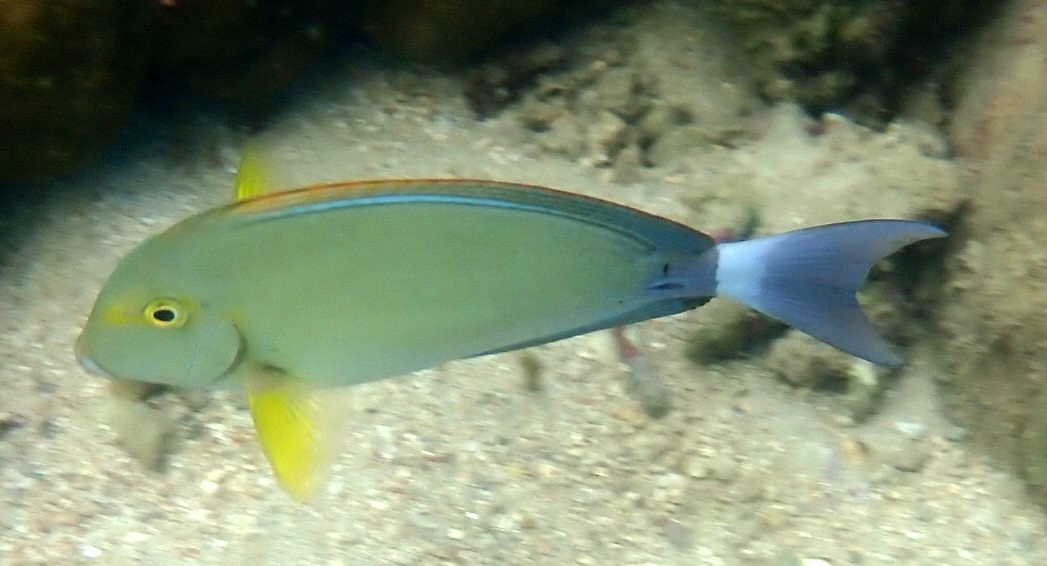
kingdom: Animalia
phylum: Chordata
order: Perciformes
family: Acanthuridae
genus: Acanthurus
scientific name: Acanthurus xanthopterus
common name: Cuvier's surgeonfish
